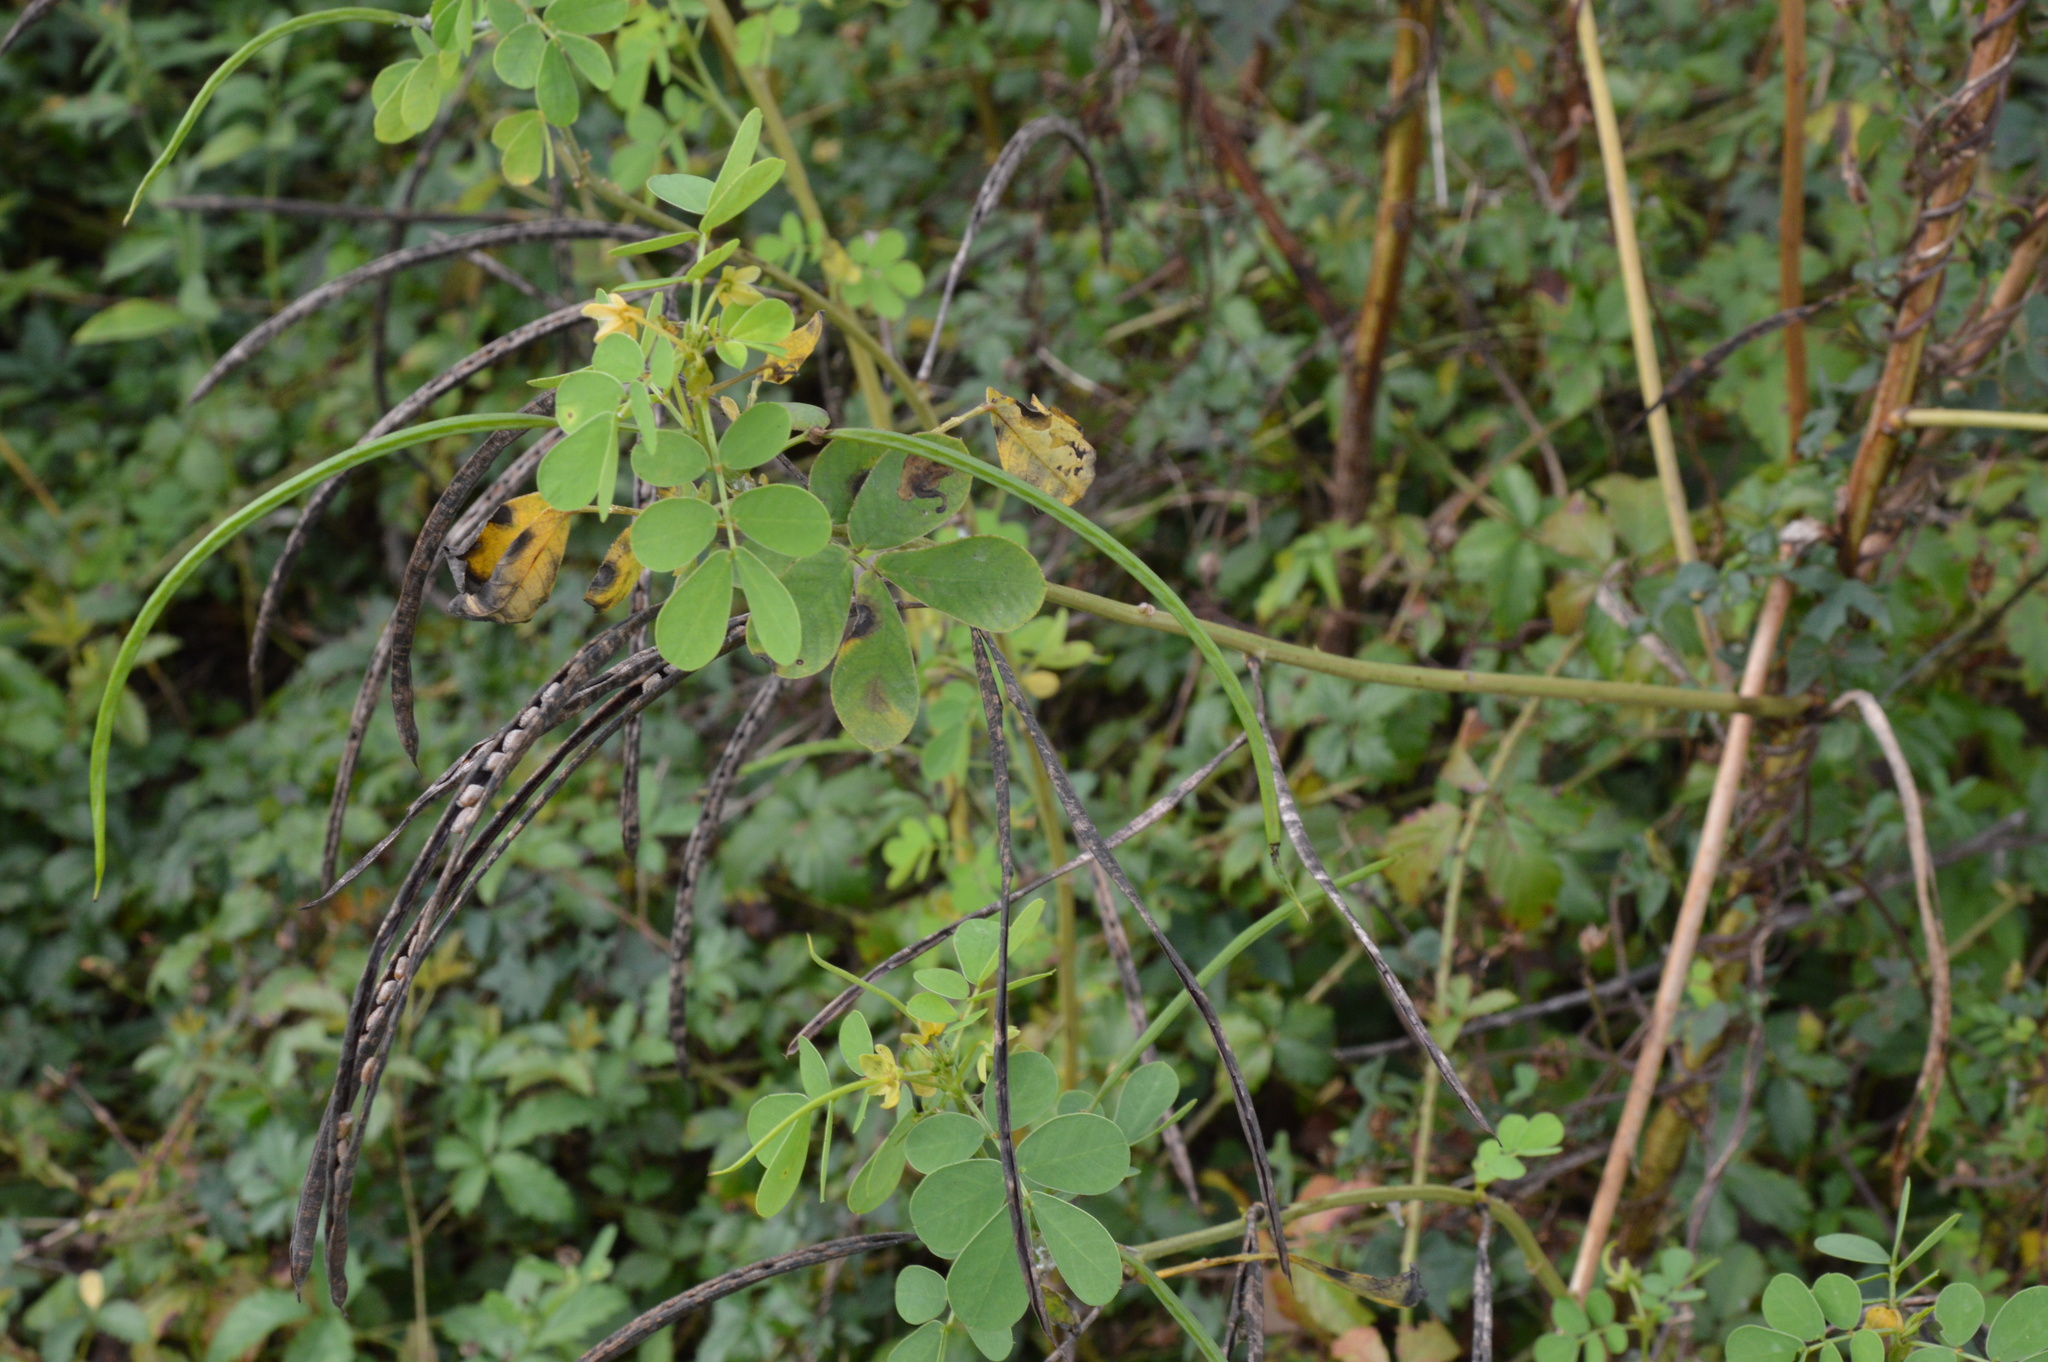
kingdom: Plantae
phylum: Tracheophyta
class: Magnoliopsida
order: Fabales
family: Fabaceae
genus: Senna
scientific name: Senna obtusifolia
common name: Java-bean
